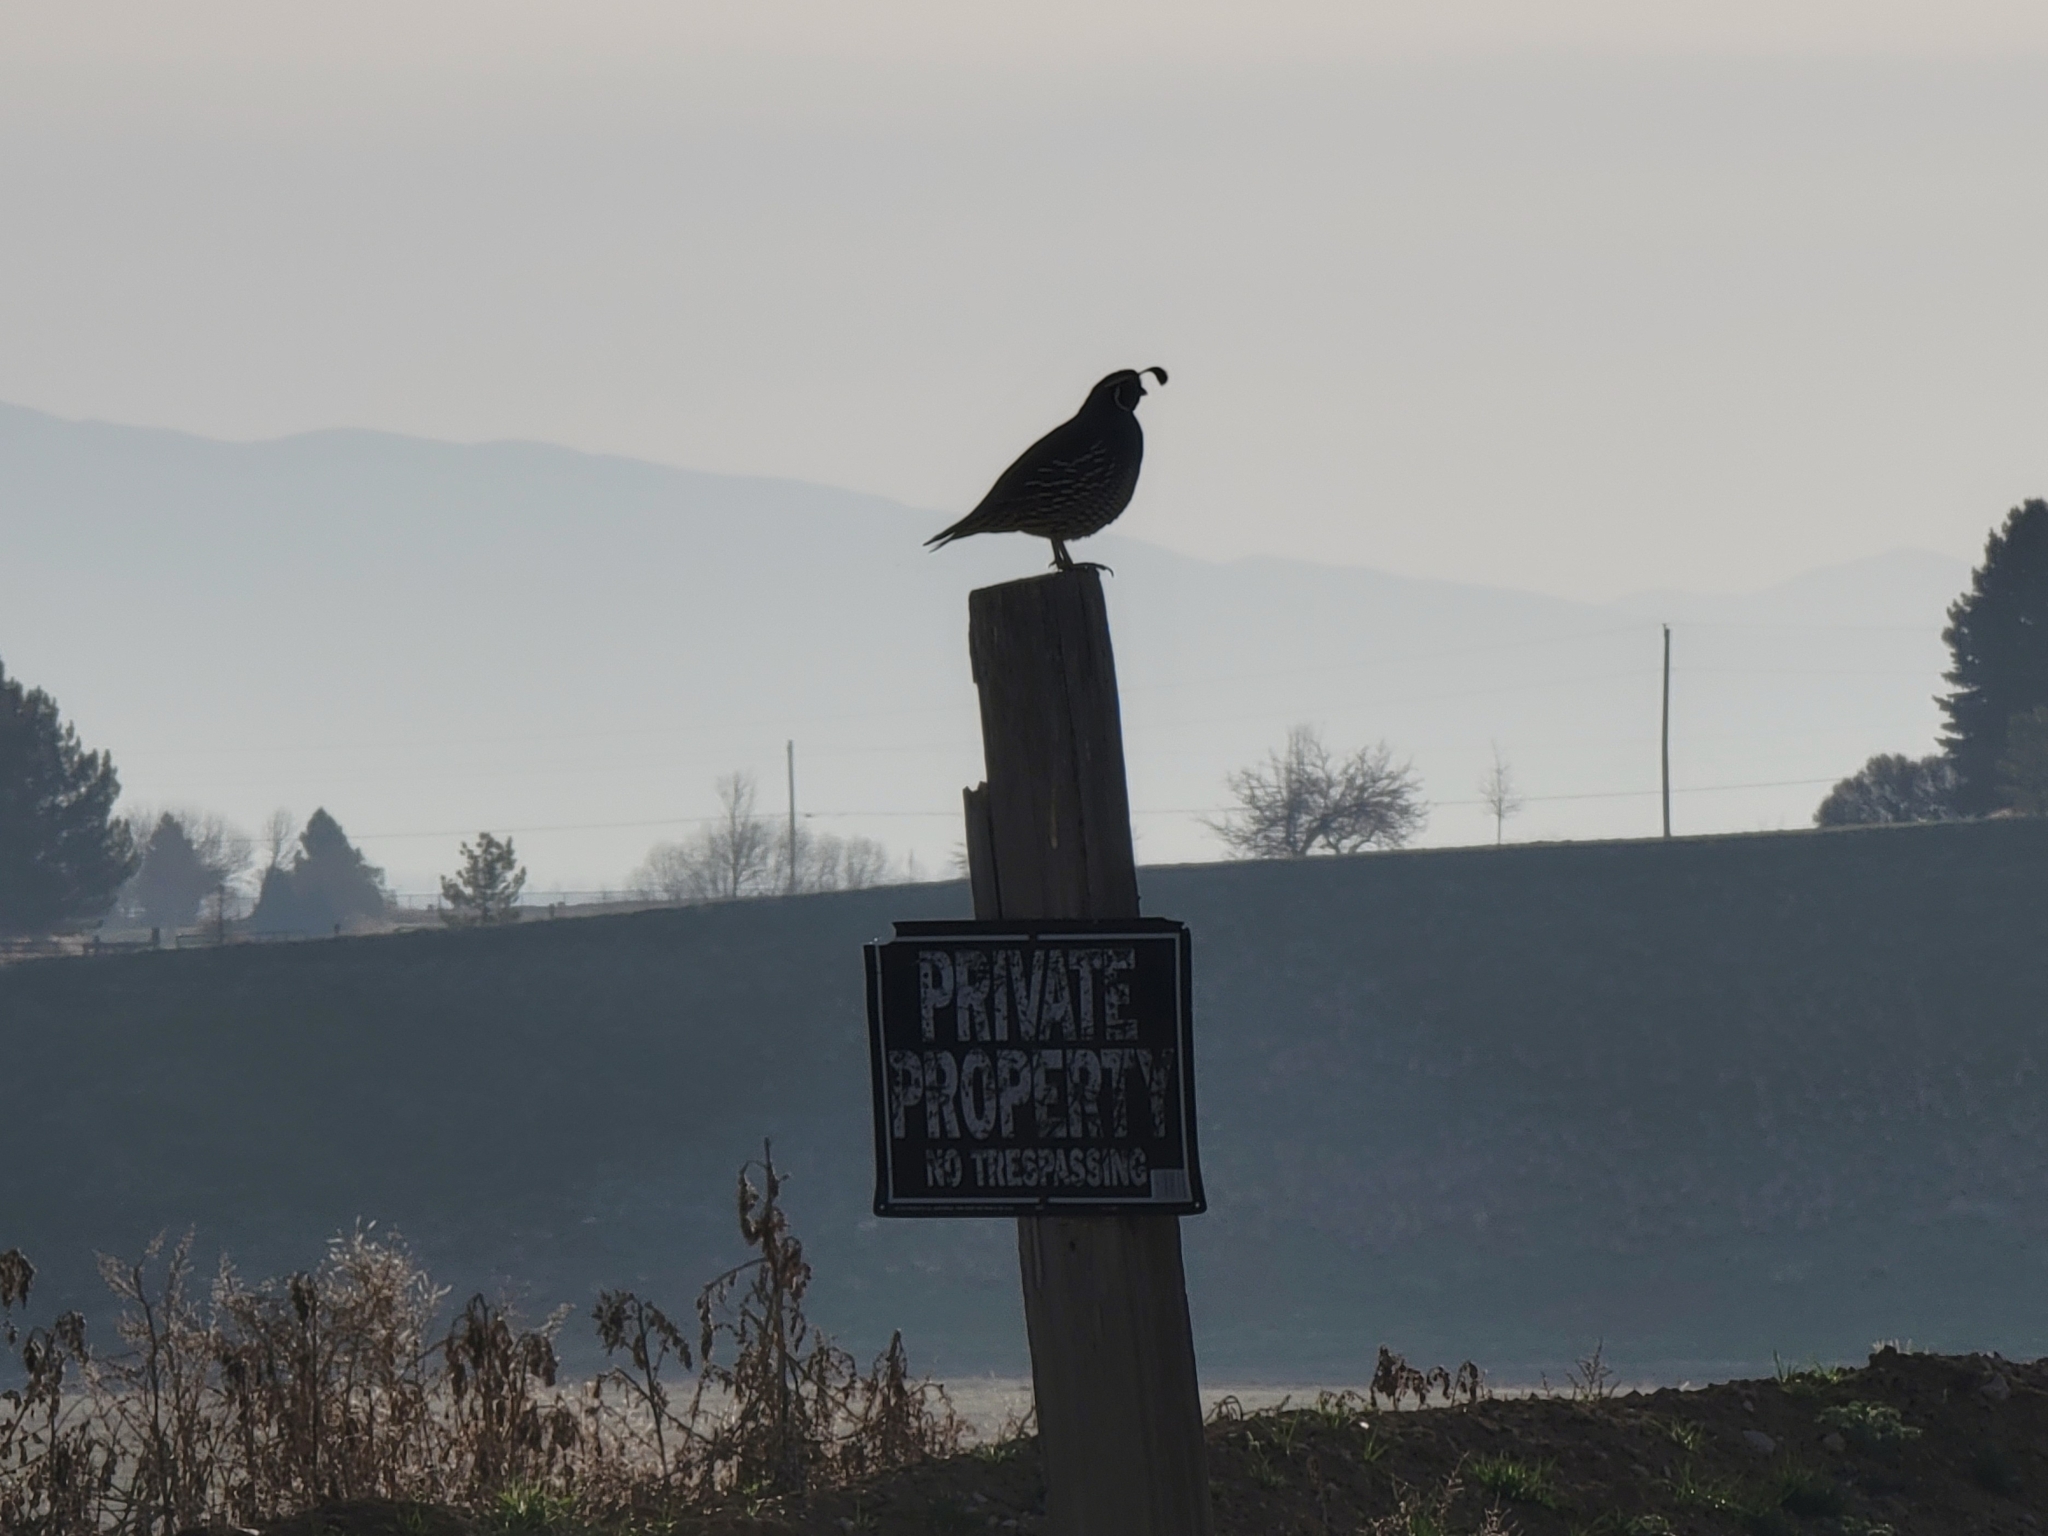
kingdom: Animalia
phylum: Chordata
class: Aves
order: Galliformes
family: Odontophoridae
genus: Callipepla
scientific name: Callipepla californica
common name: California quail
